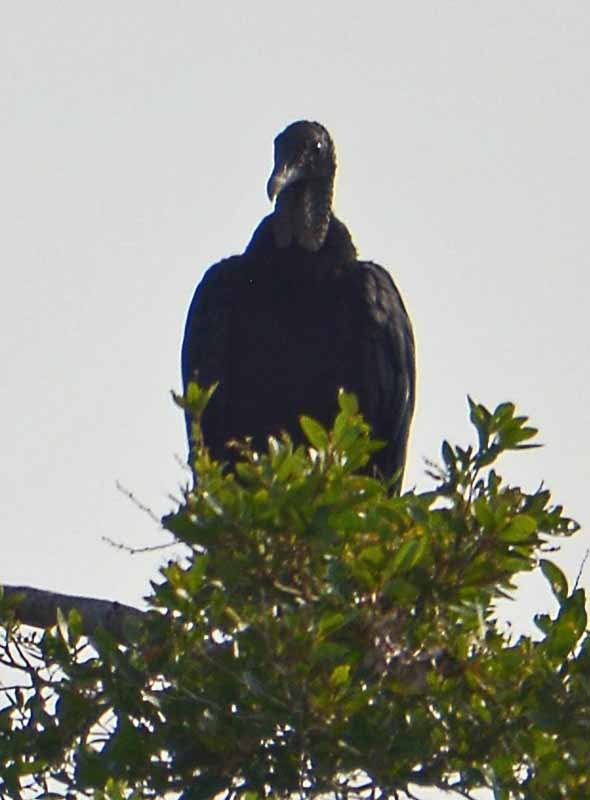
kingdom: Animalia
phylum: Chordata
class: Aves
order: Accipitriformes
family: Cathartidae
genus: Coragyps
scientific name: Coragyps atratus
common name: Black vulture
